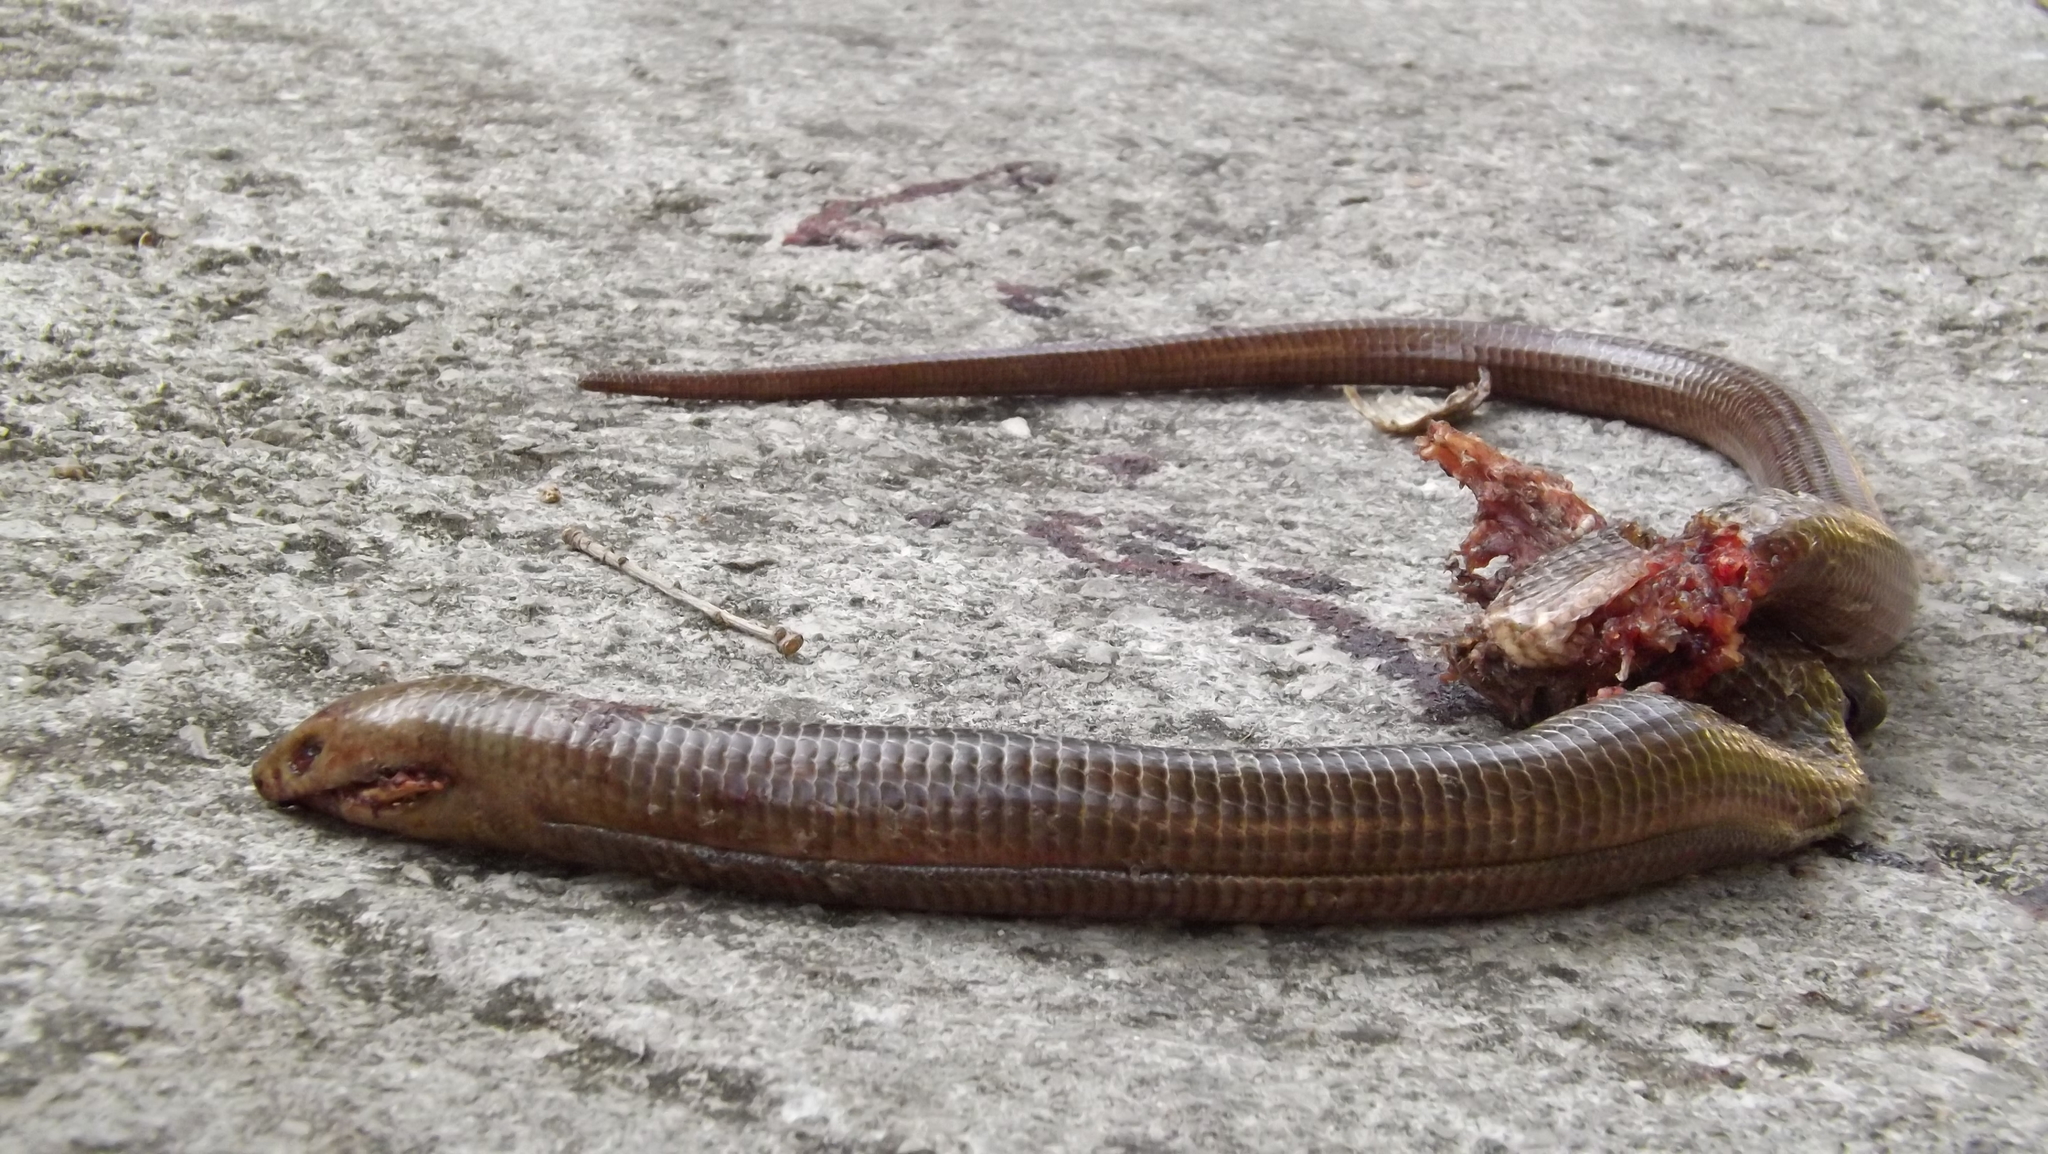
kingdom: Animalia
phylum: Chordata
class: Squamata
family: Anguidae
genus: Pseudopus
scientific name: Pseudopus apodus
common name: European glass lizard
